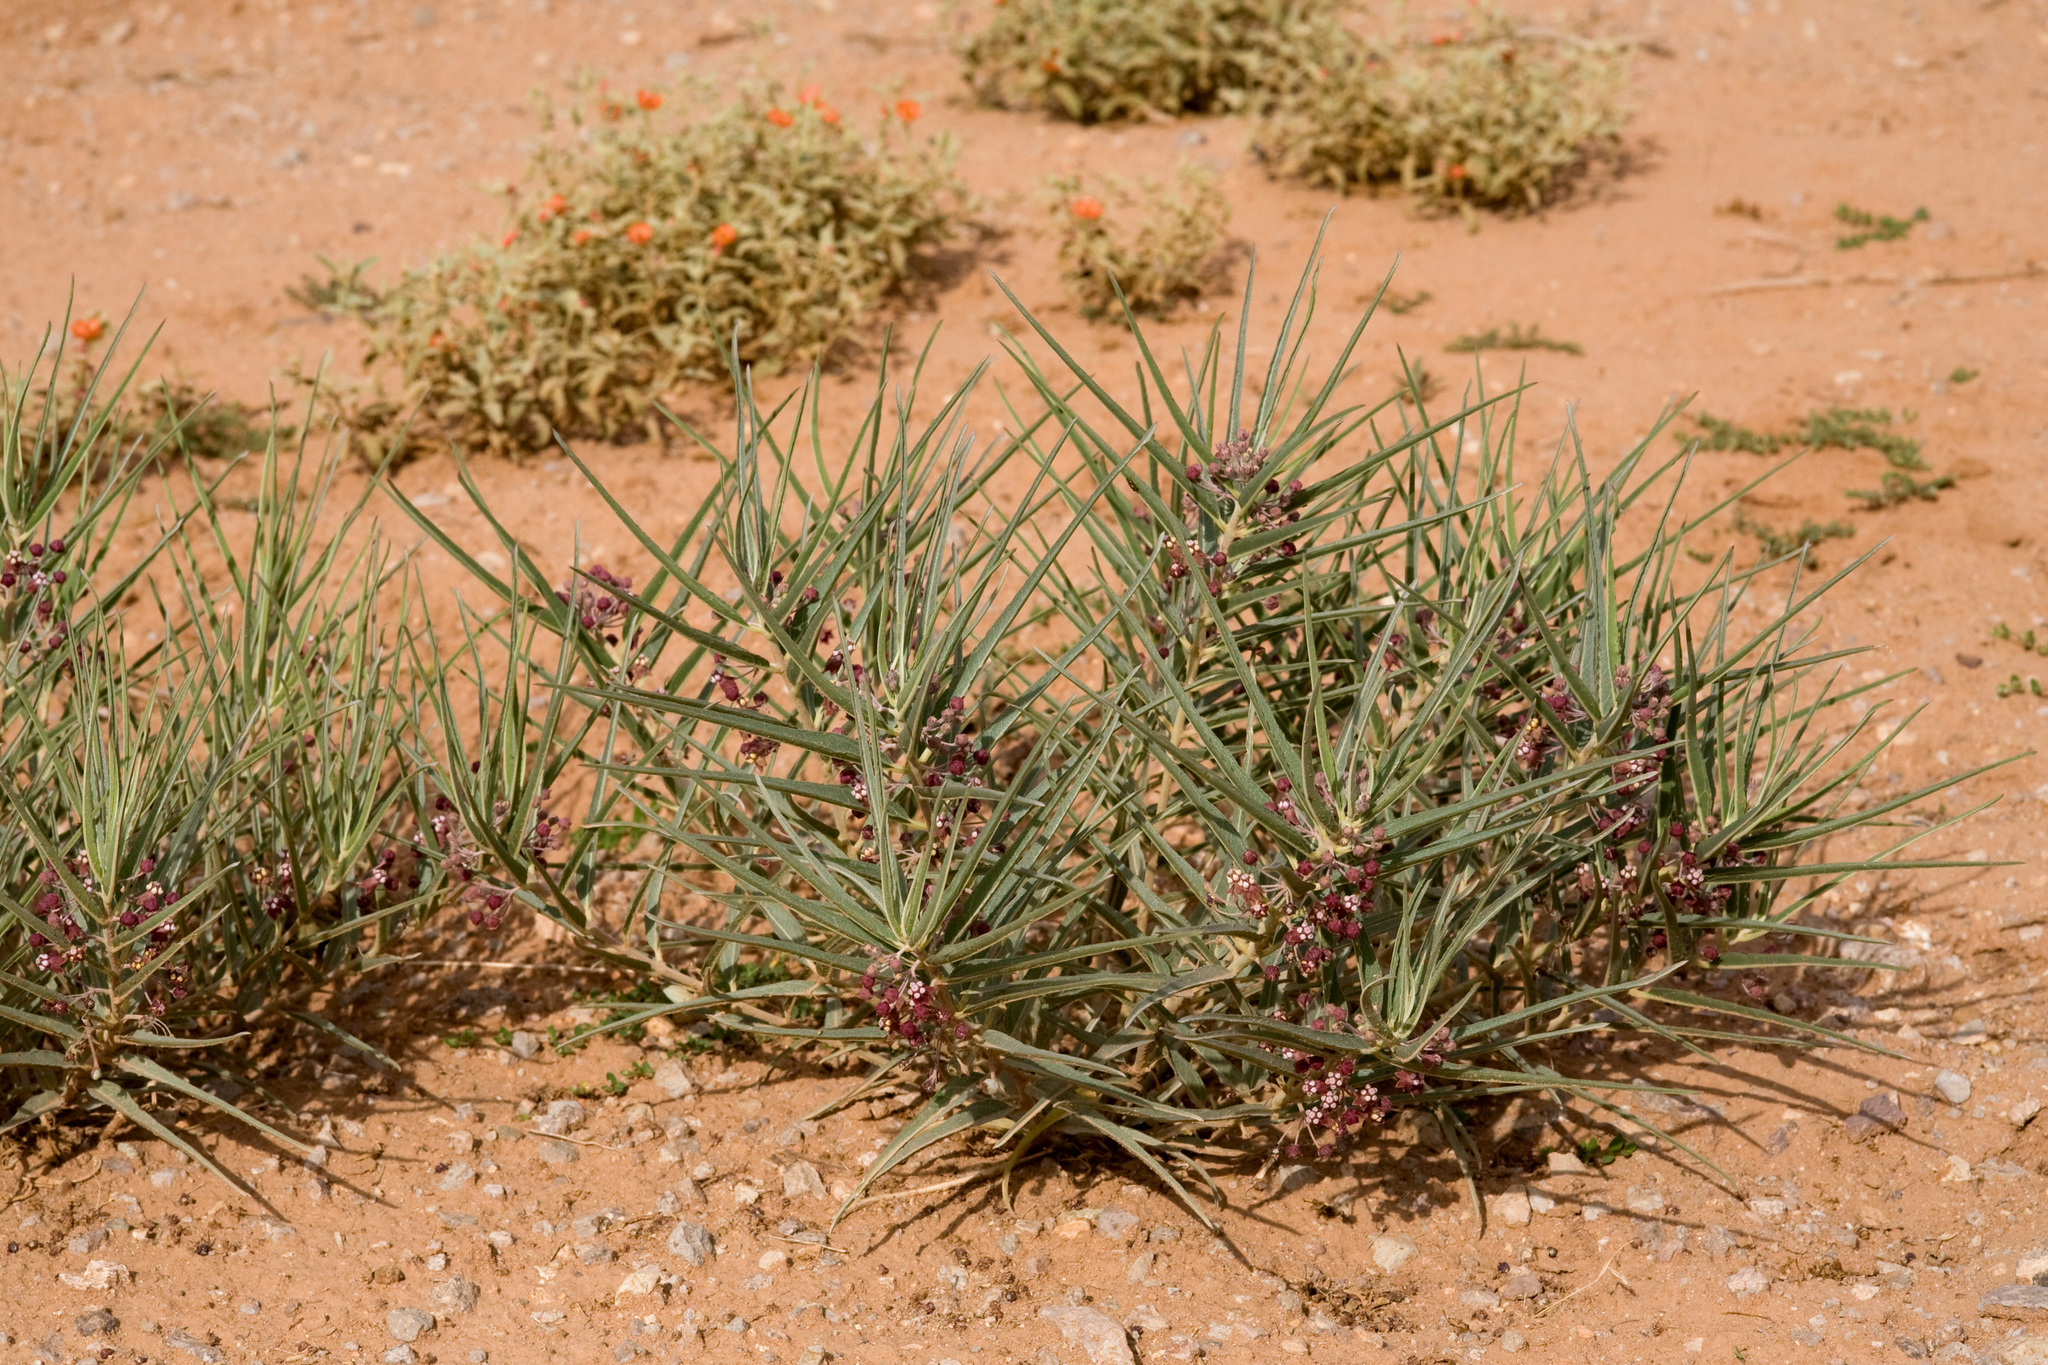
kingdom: Plantae
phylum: Tracheophyta
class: Magnoliopsida
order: Gentianales
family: Apocynaceae
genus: Asclepias
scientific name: Asclepias brachystephana
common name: Shortcrown milkweed
